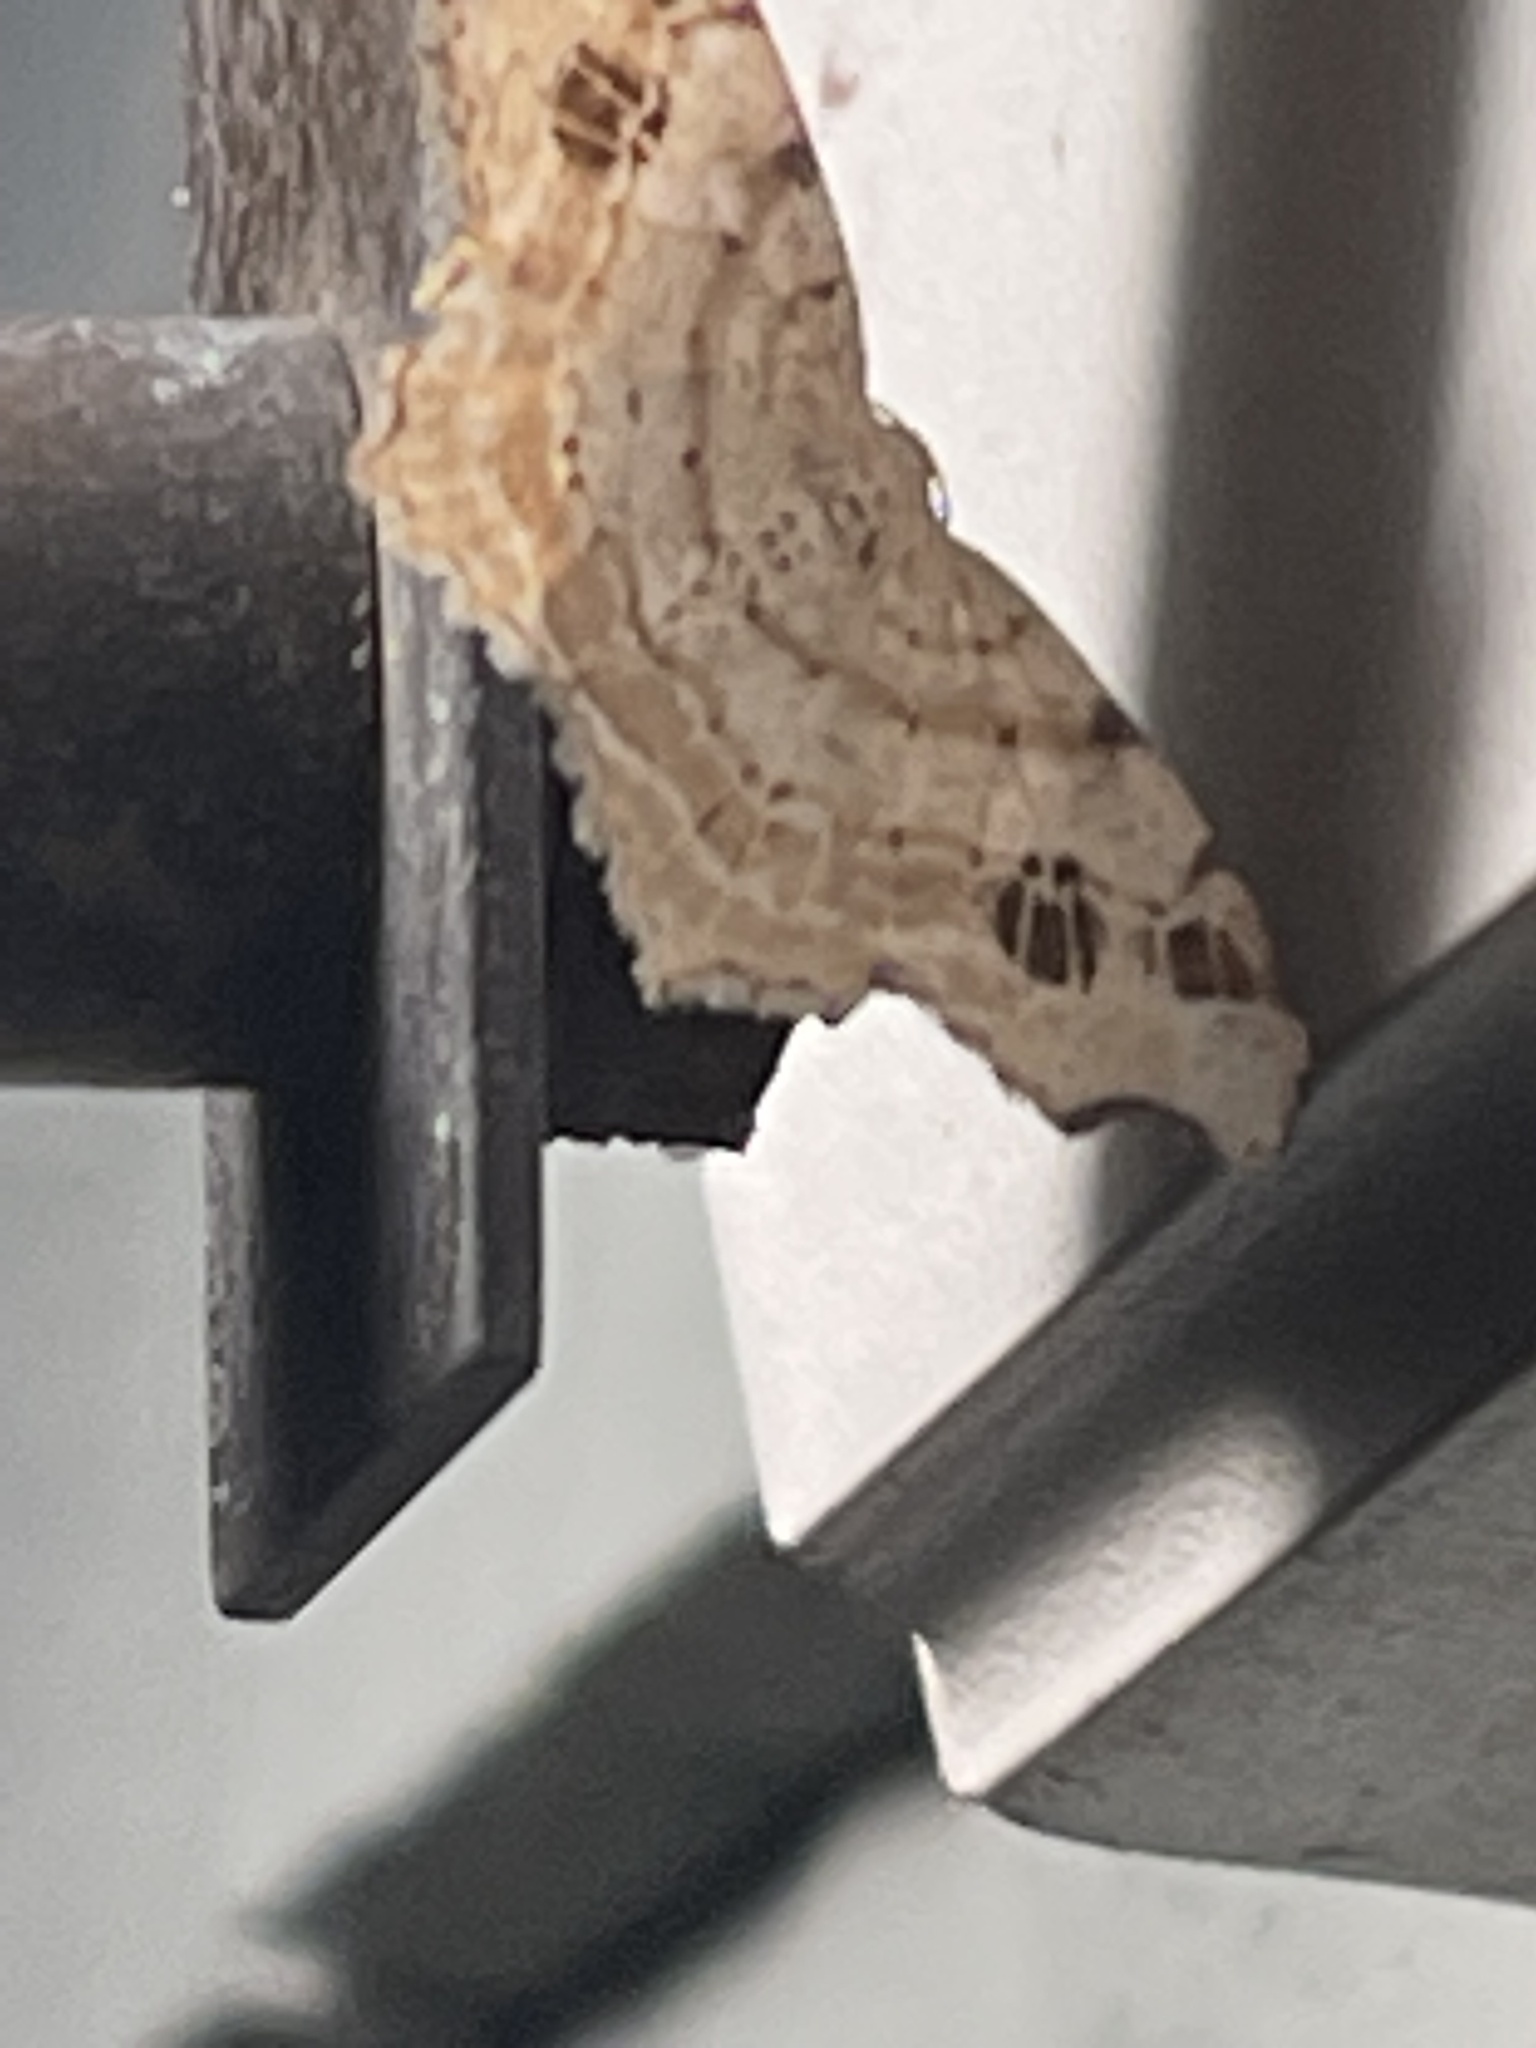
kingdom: Animalia
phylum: Arthropoda
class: Insecta
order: Lepidoptera
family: Geometridae
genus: Macaria
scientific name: Macaria aemulataria
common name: Common angle
